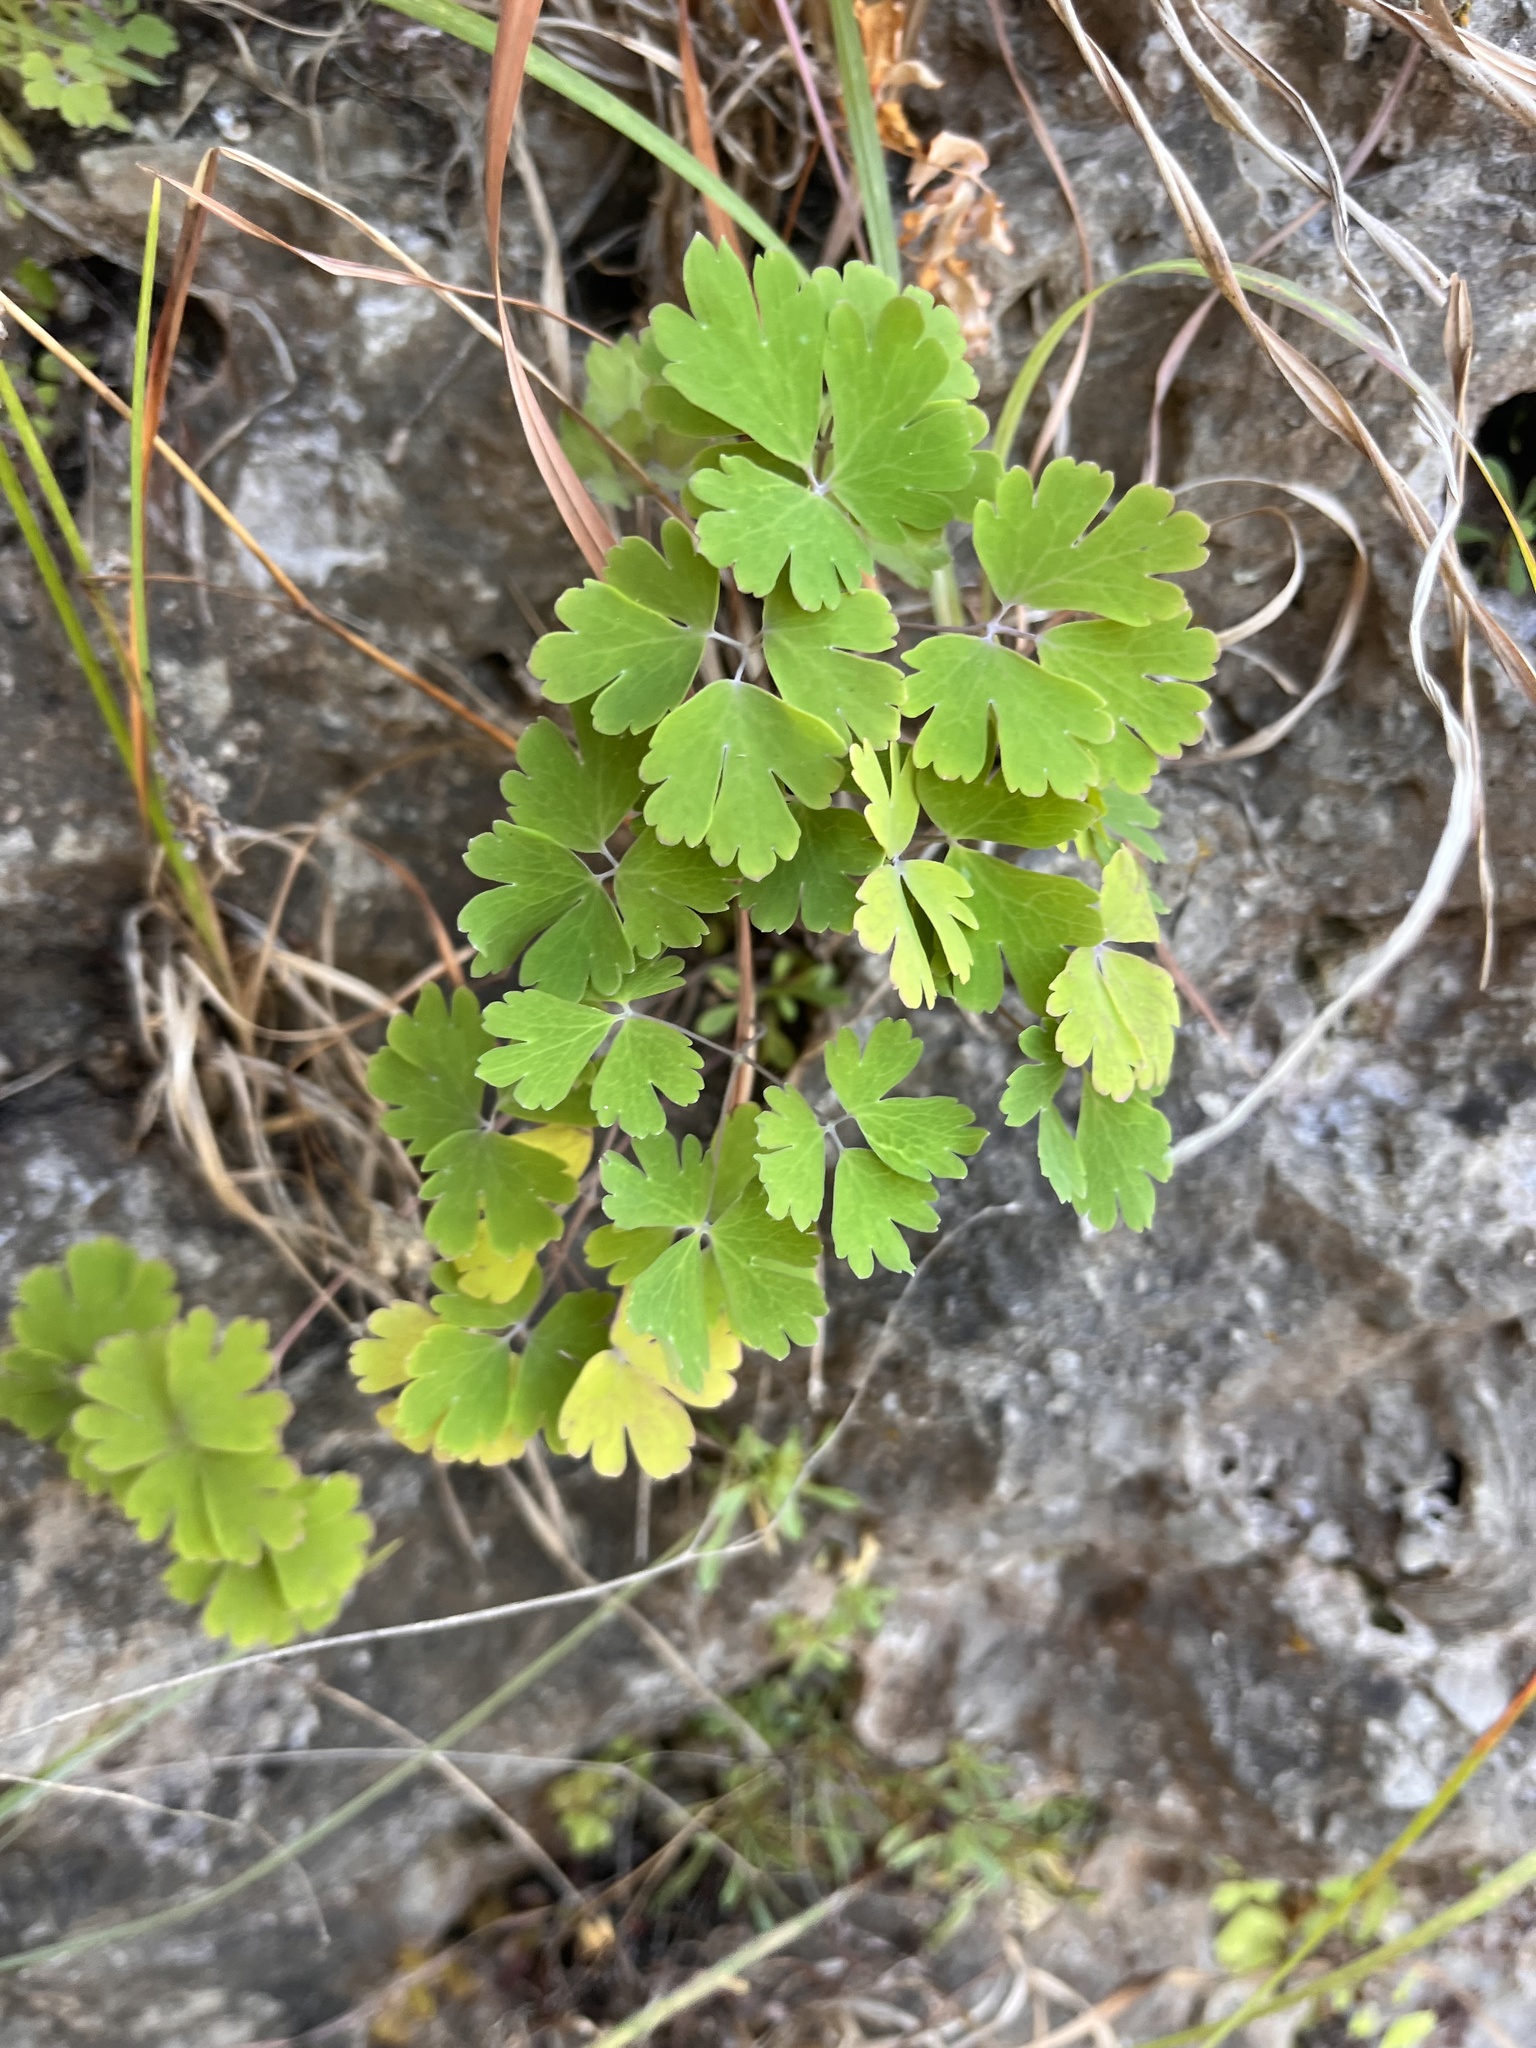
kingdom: Plantae
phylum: Tracheophyta
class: Magnoliopsida
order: Ranunculales
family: Ranunculaceae
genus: Aquilegia
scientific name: Aquilegia canadensis
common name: American columbine
